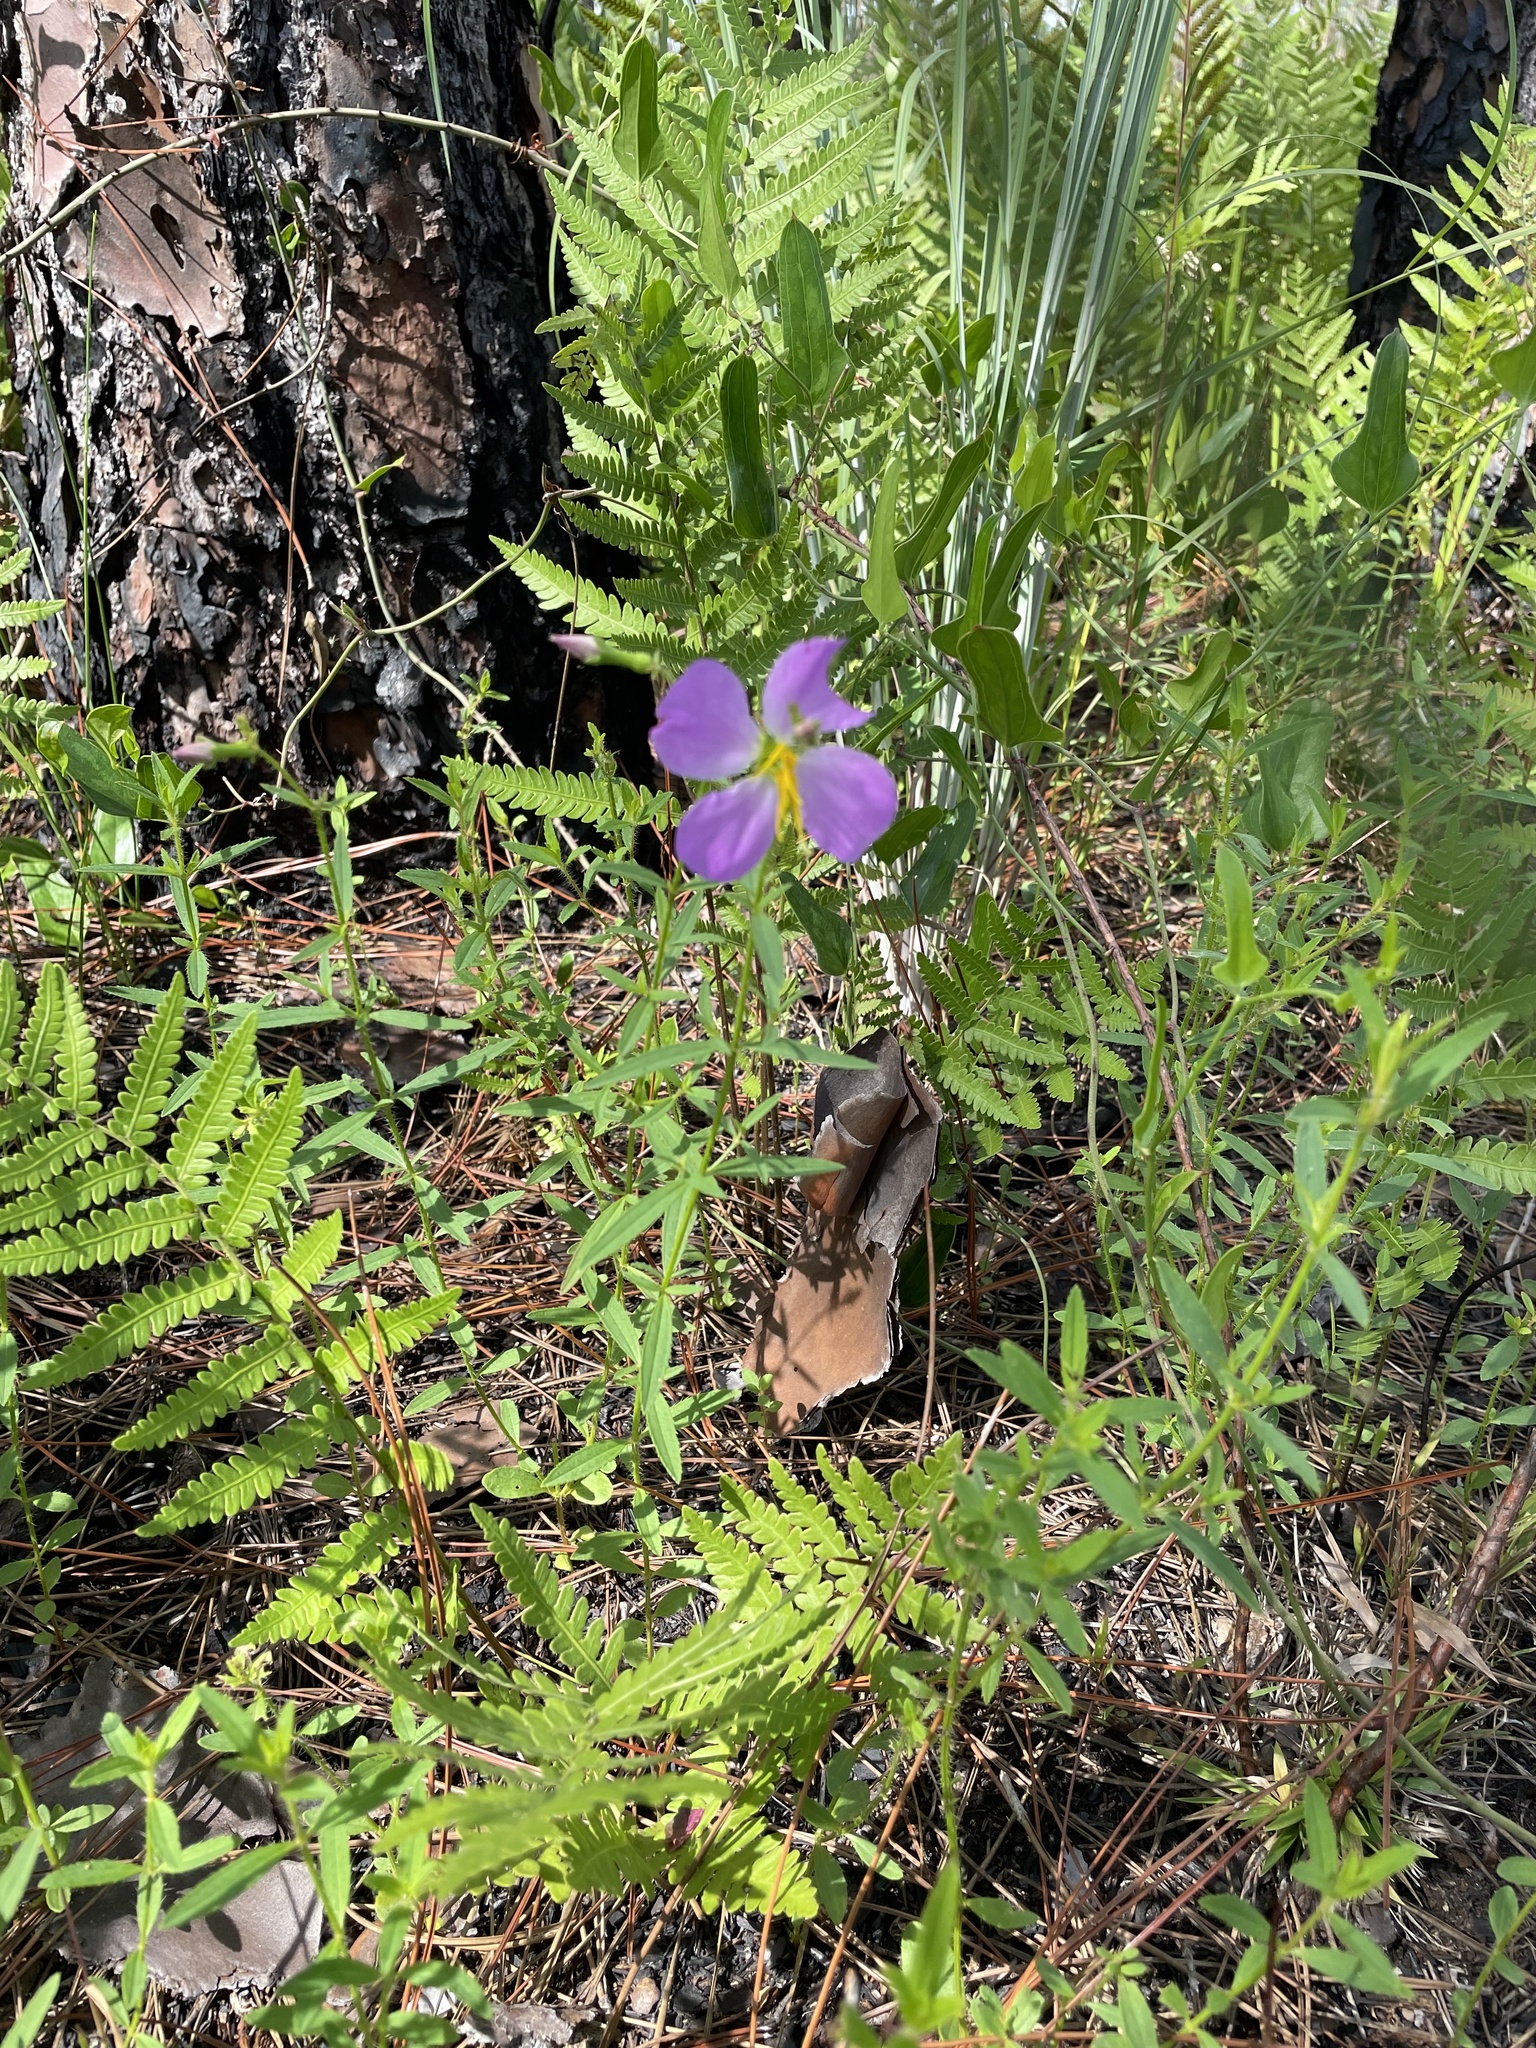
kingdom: Plantae
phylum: Tracheophyta
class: Magnoliopsida
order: Myrtales
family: Melastomataceae
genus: Rhexia
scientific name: Rhexia nashii
